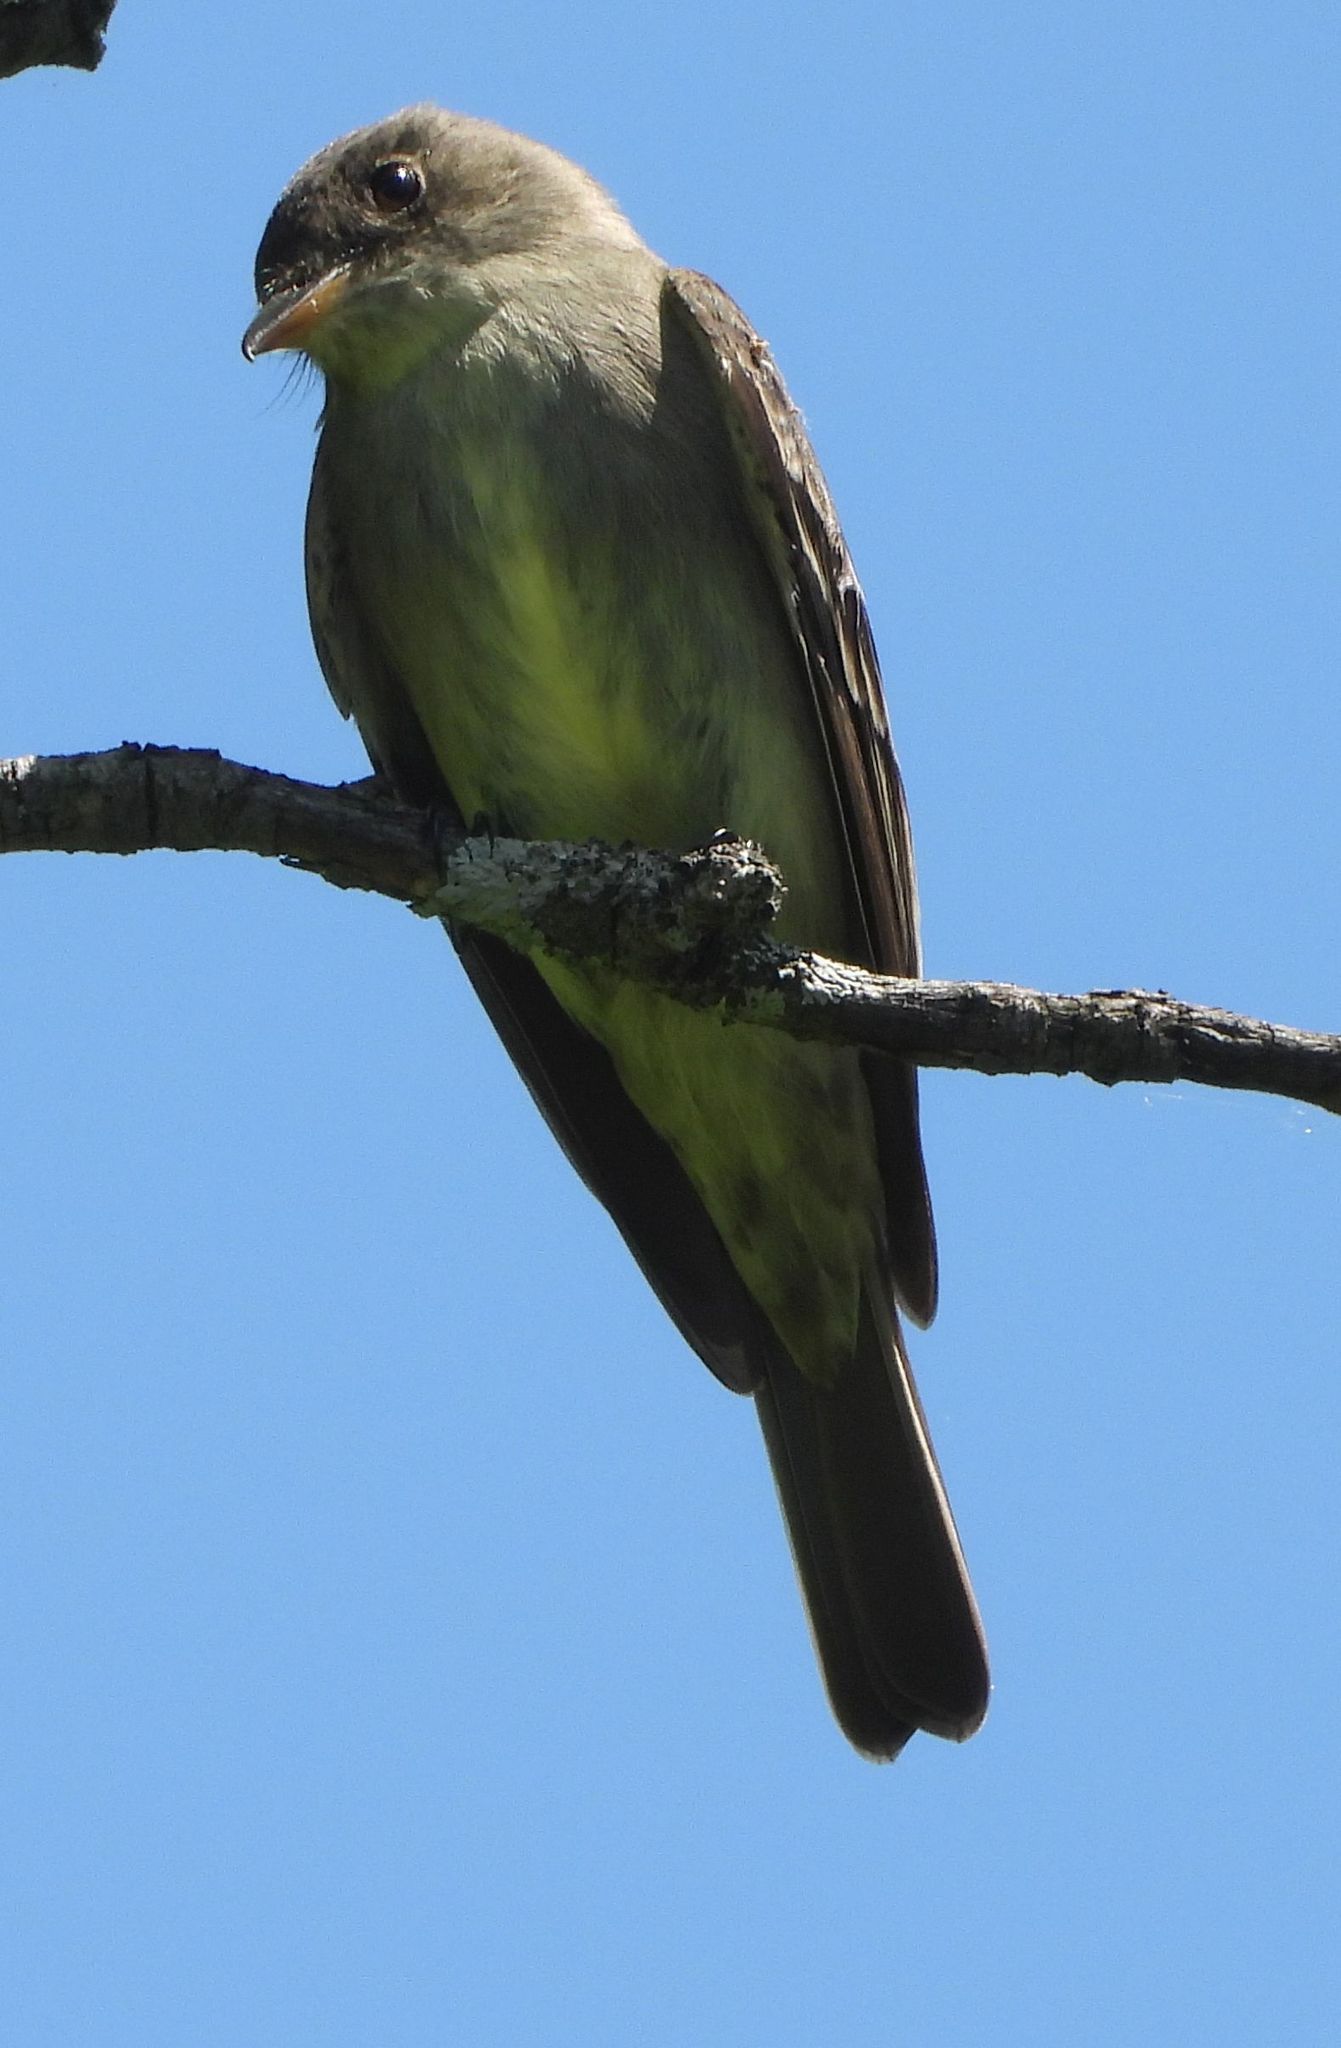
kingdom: Animalia
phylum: Chordata
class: Aves
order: Passeriformes
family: Tyrannidae
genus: Contopus
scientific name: Contopus virens
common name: Eastern wood-pewee
